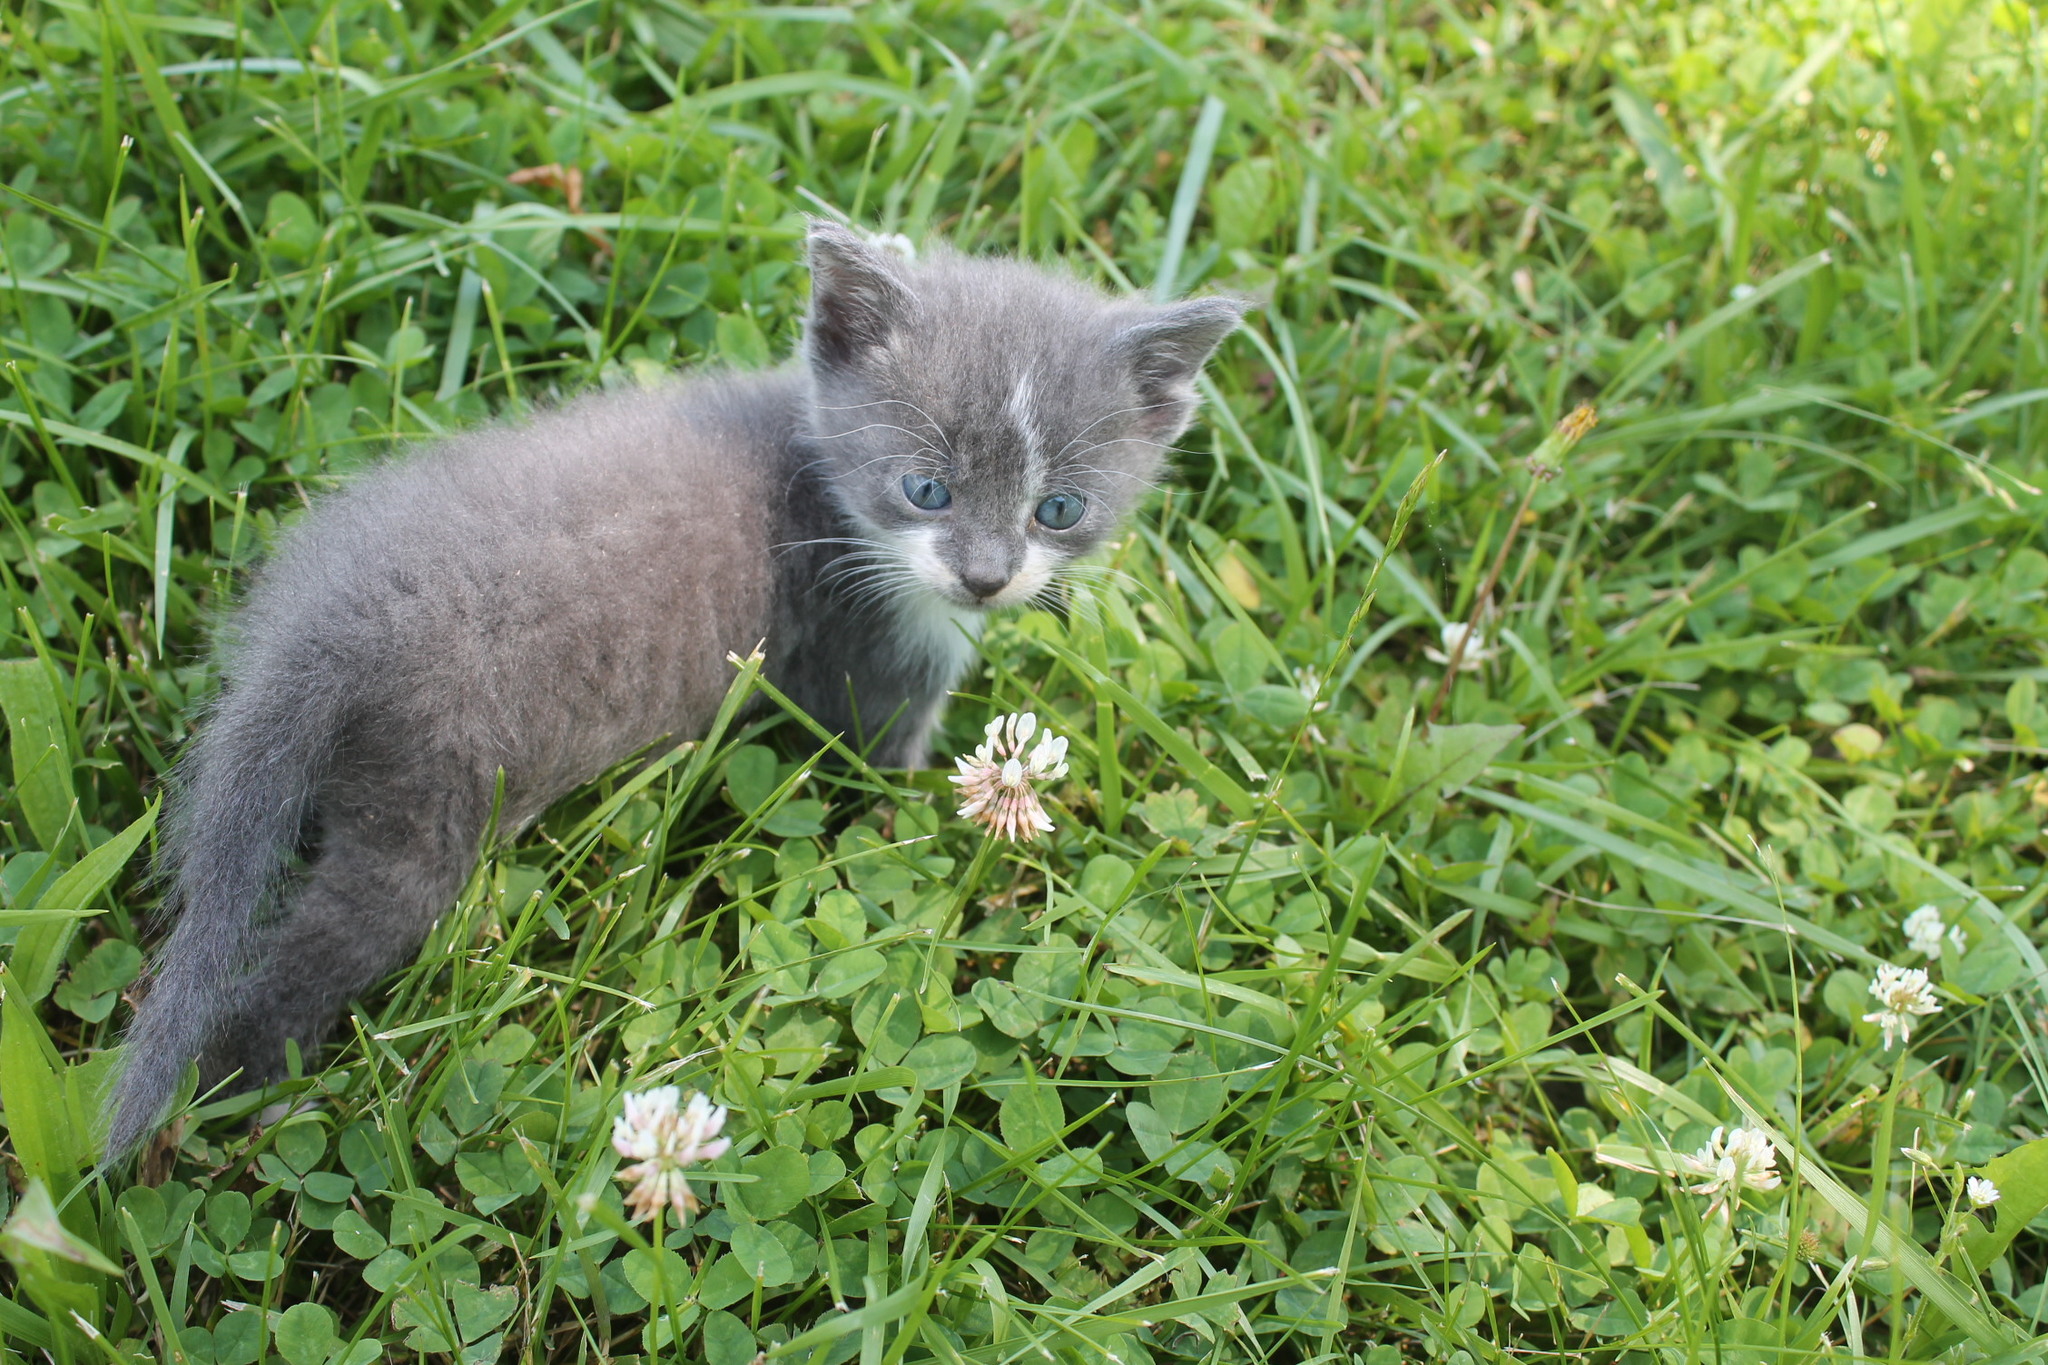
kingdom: Plantae
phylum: Tracheophyta
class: Magnoliopsida
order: Fabales
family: Fabaceae
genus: Trifolium
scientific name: Trifolium repens
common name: White clover
